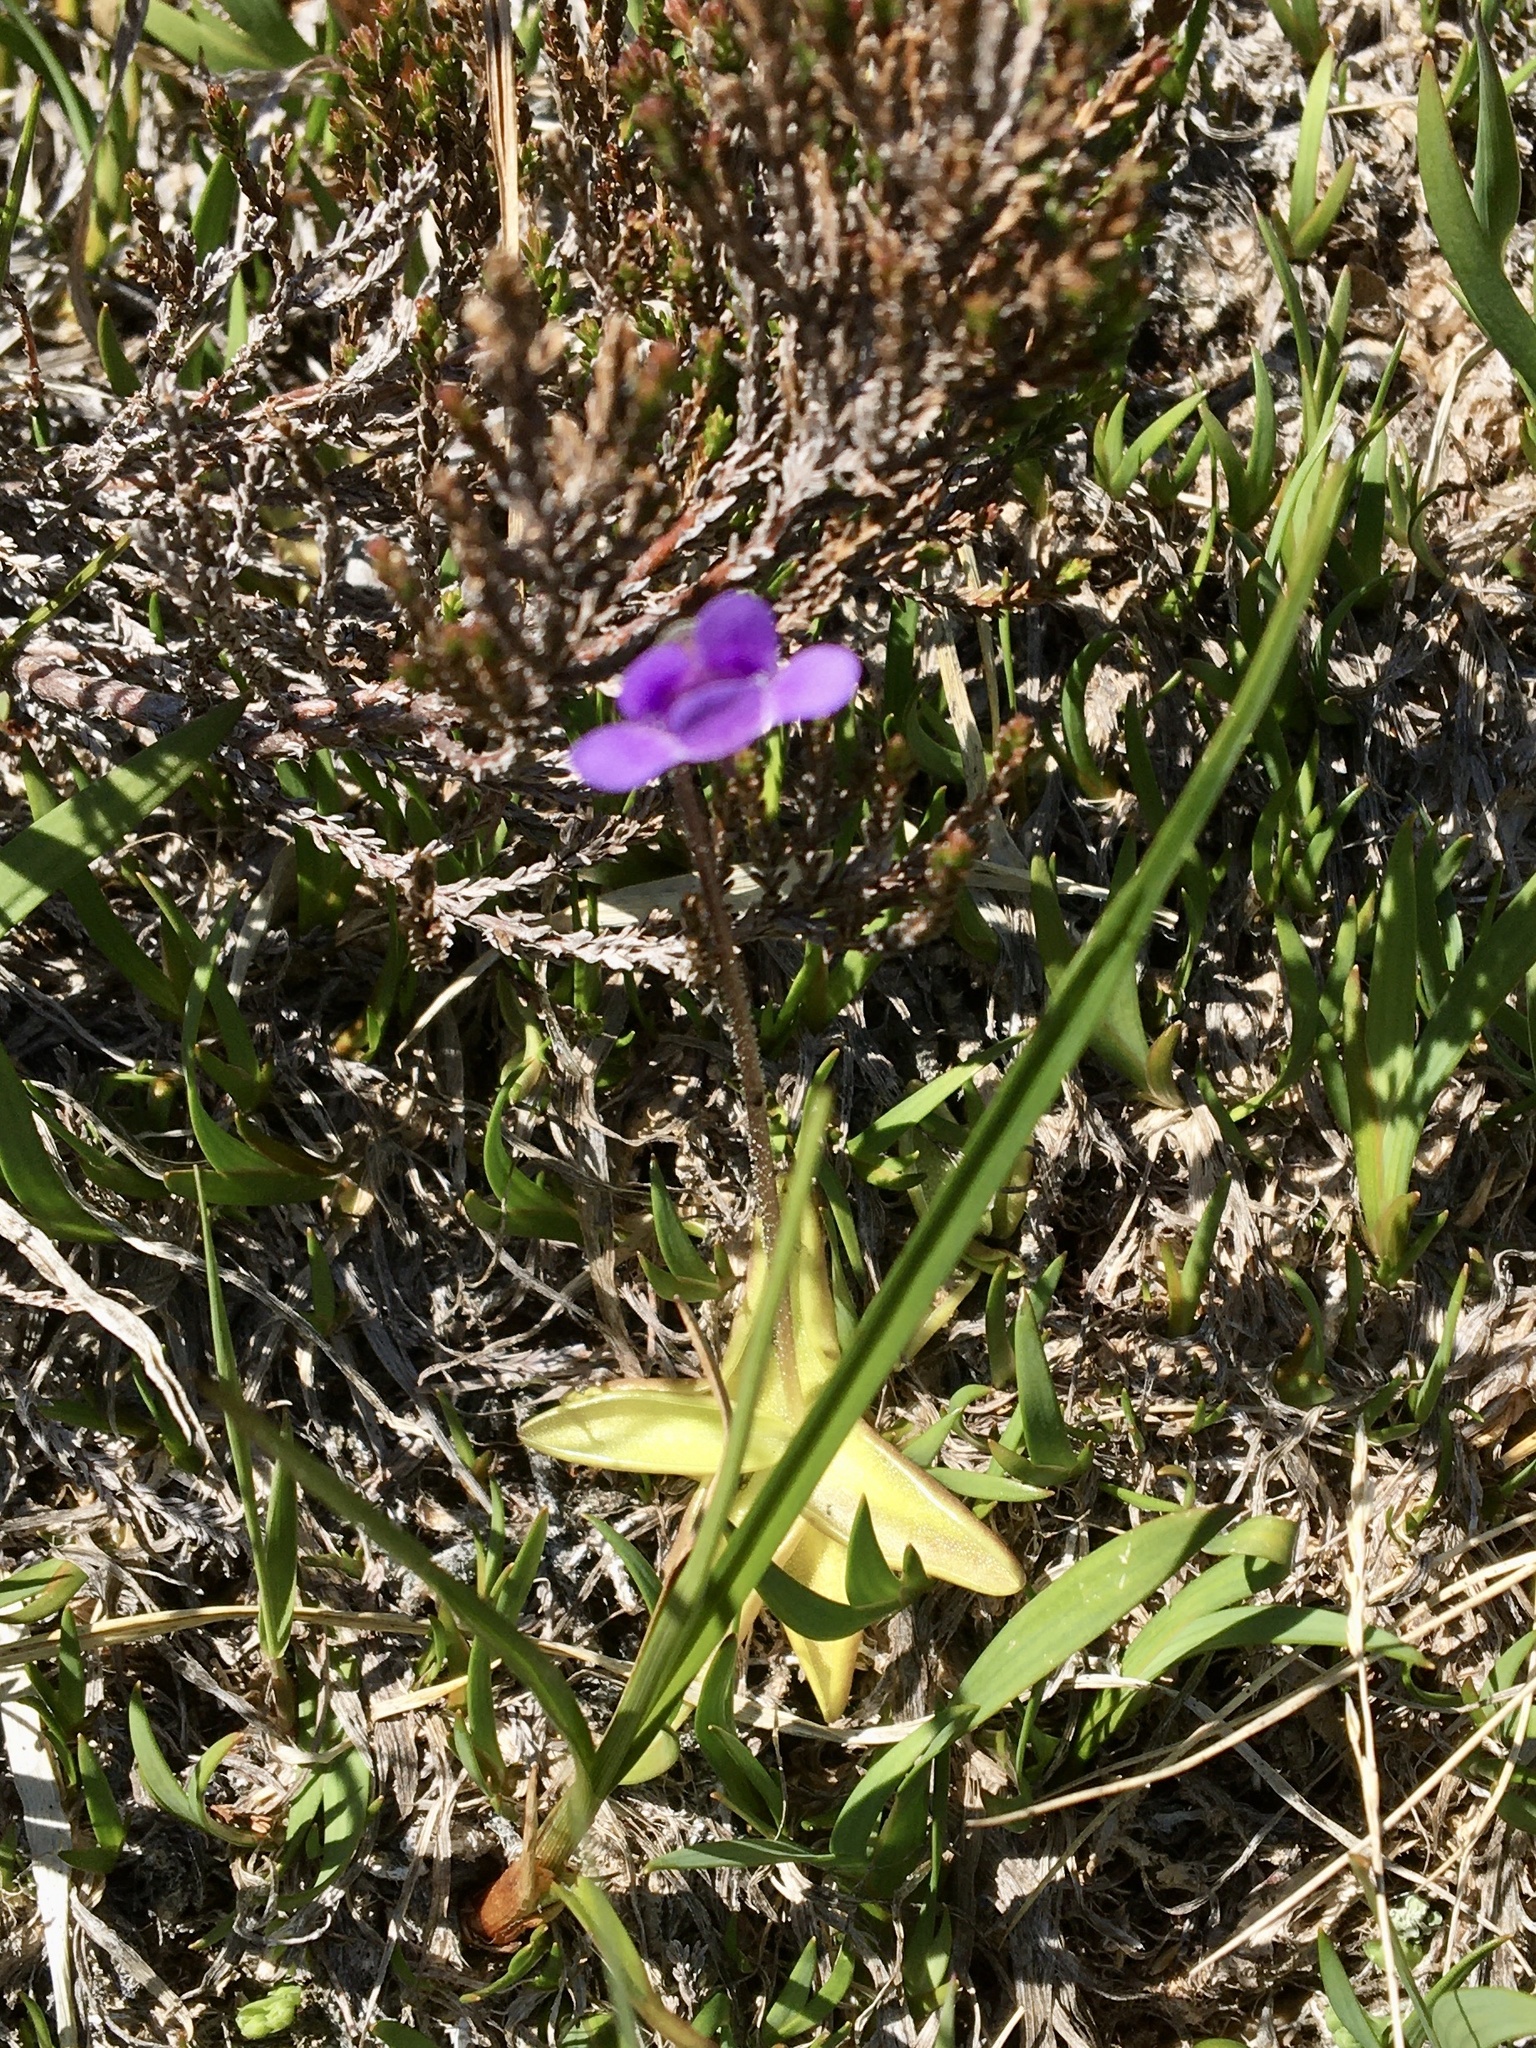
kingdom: Plantae
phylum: Tracheophyta
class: Magnoliopsida
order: Lamiales
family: Lentibulariaceae
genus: Pinguicula
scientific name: Pinguicula vulgaris
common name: Common butterwort
